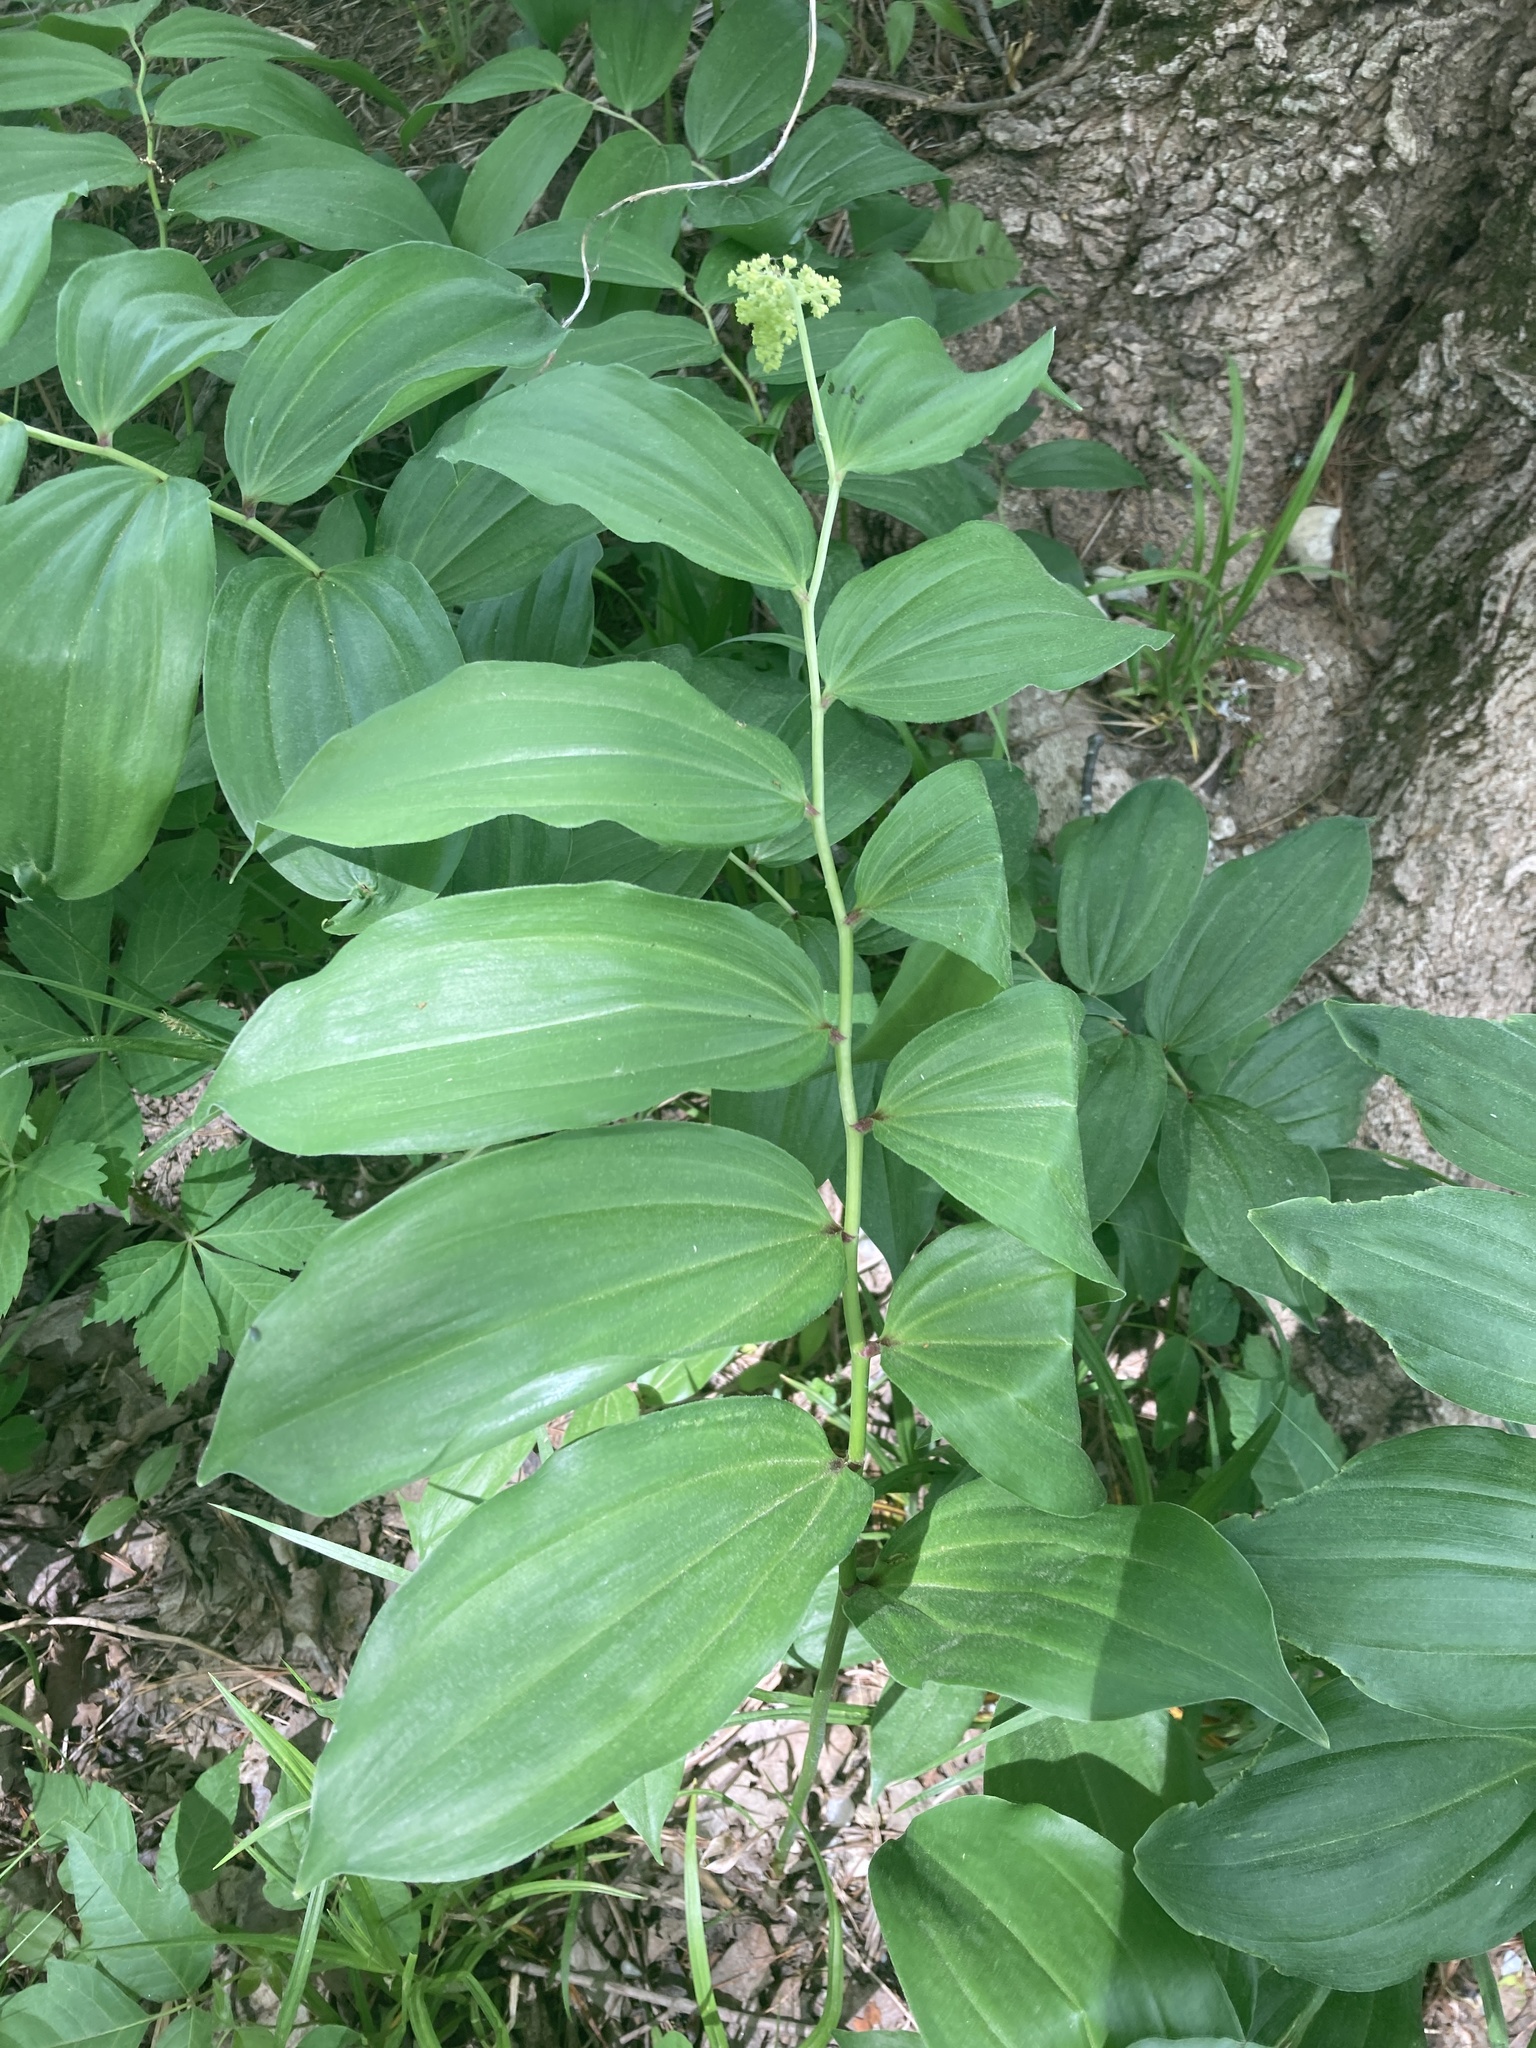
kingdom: Plantae
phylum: Tracheophyta
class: Liliopsida
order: Asparagales
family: Asparagaceae
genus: Maianthemum
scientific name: Maianthemum racemosum
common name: False spikenard
